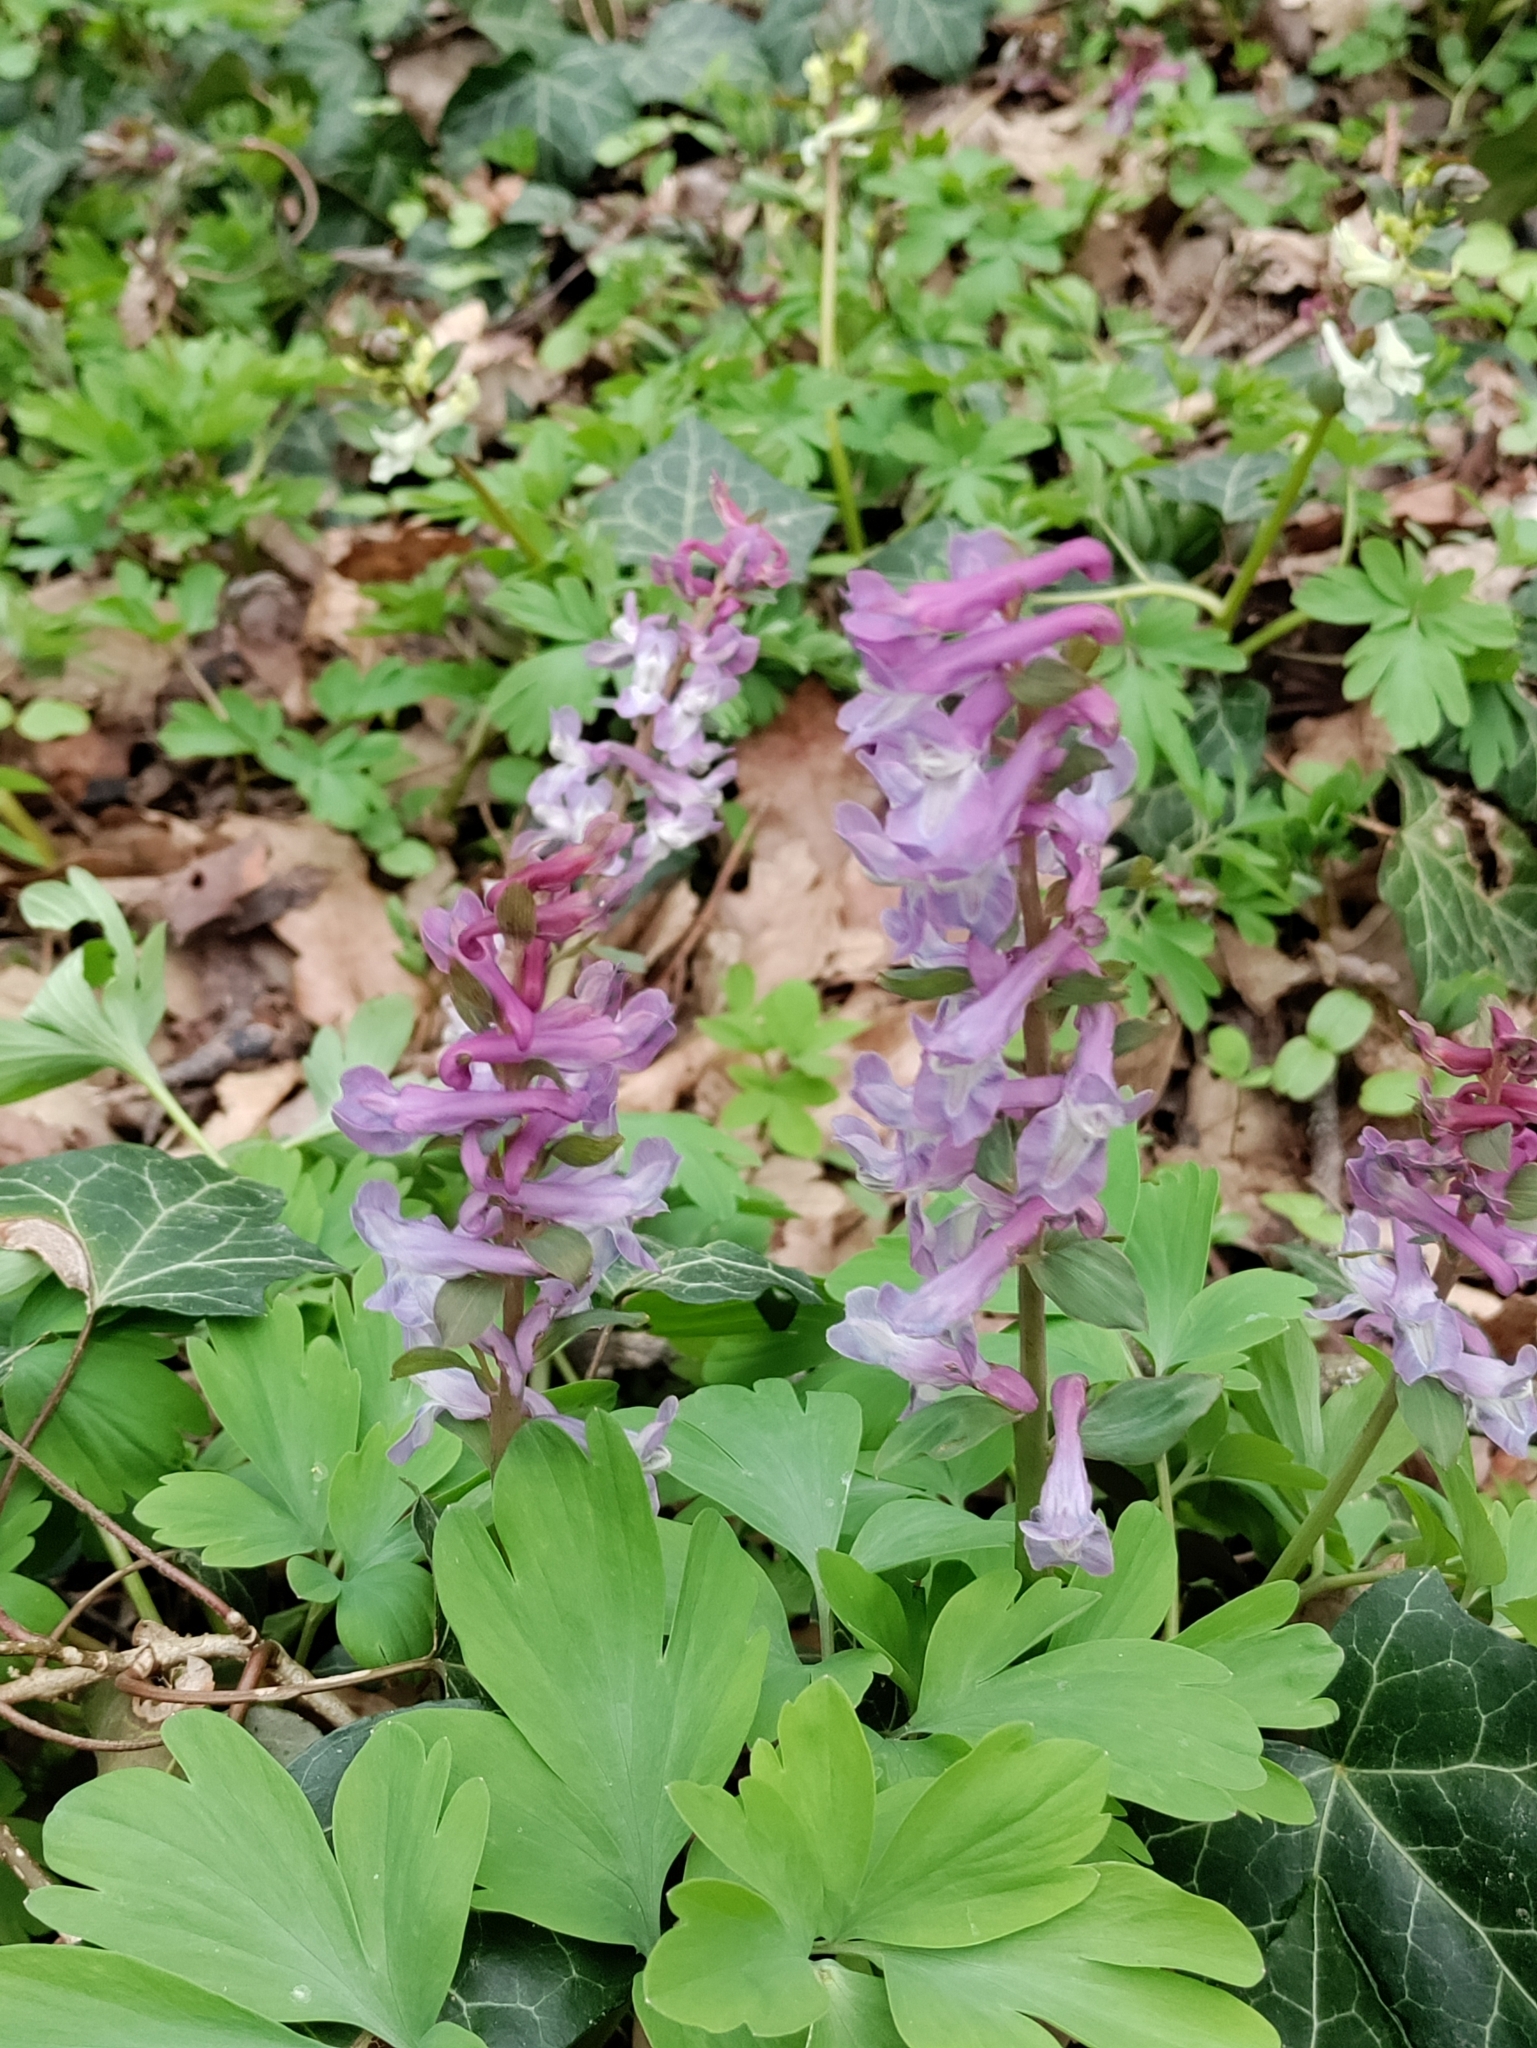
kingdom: Plantae
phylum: Tracheophyta
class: Magnoliopsida
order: Ranunculales
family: Papaveraceae
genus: Corydalis
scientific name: Corydalis cava
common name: Hollowroot
